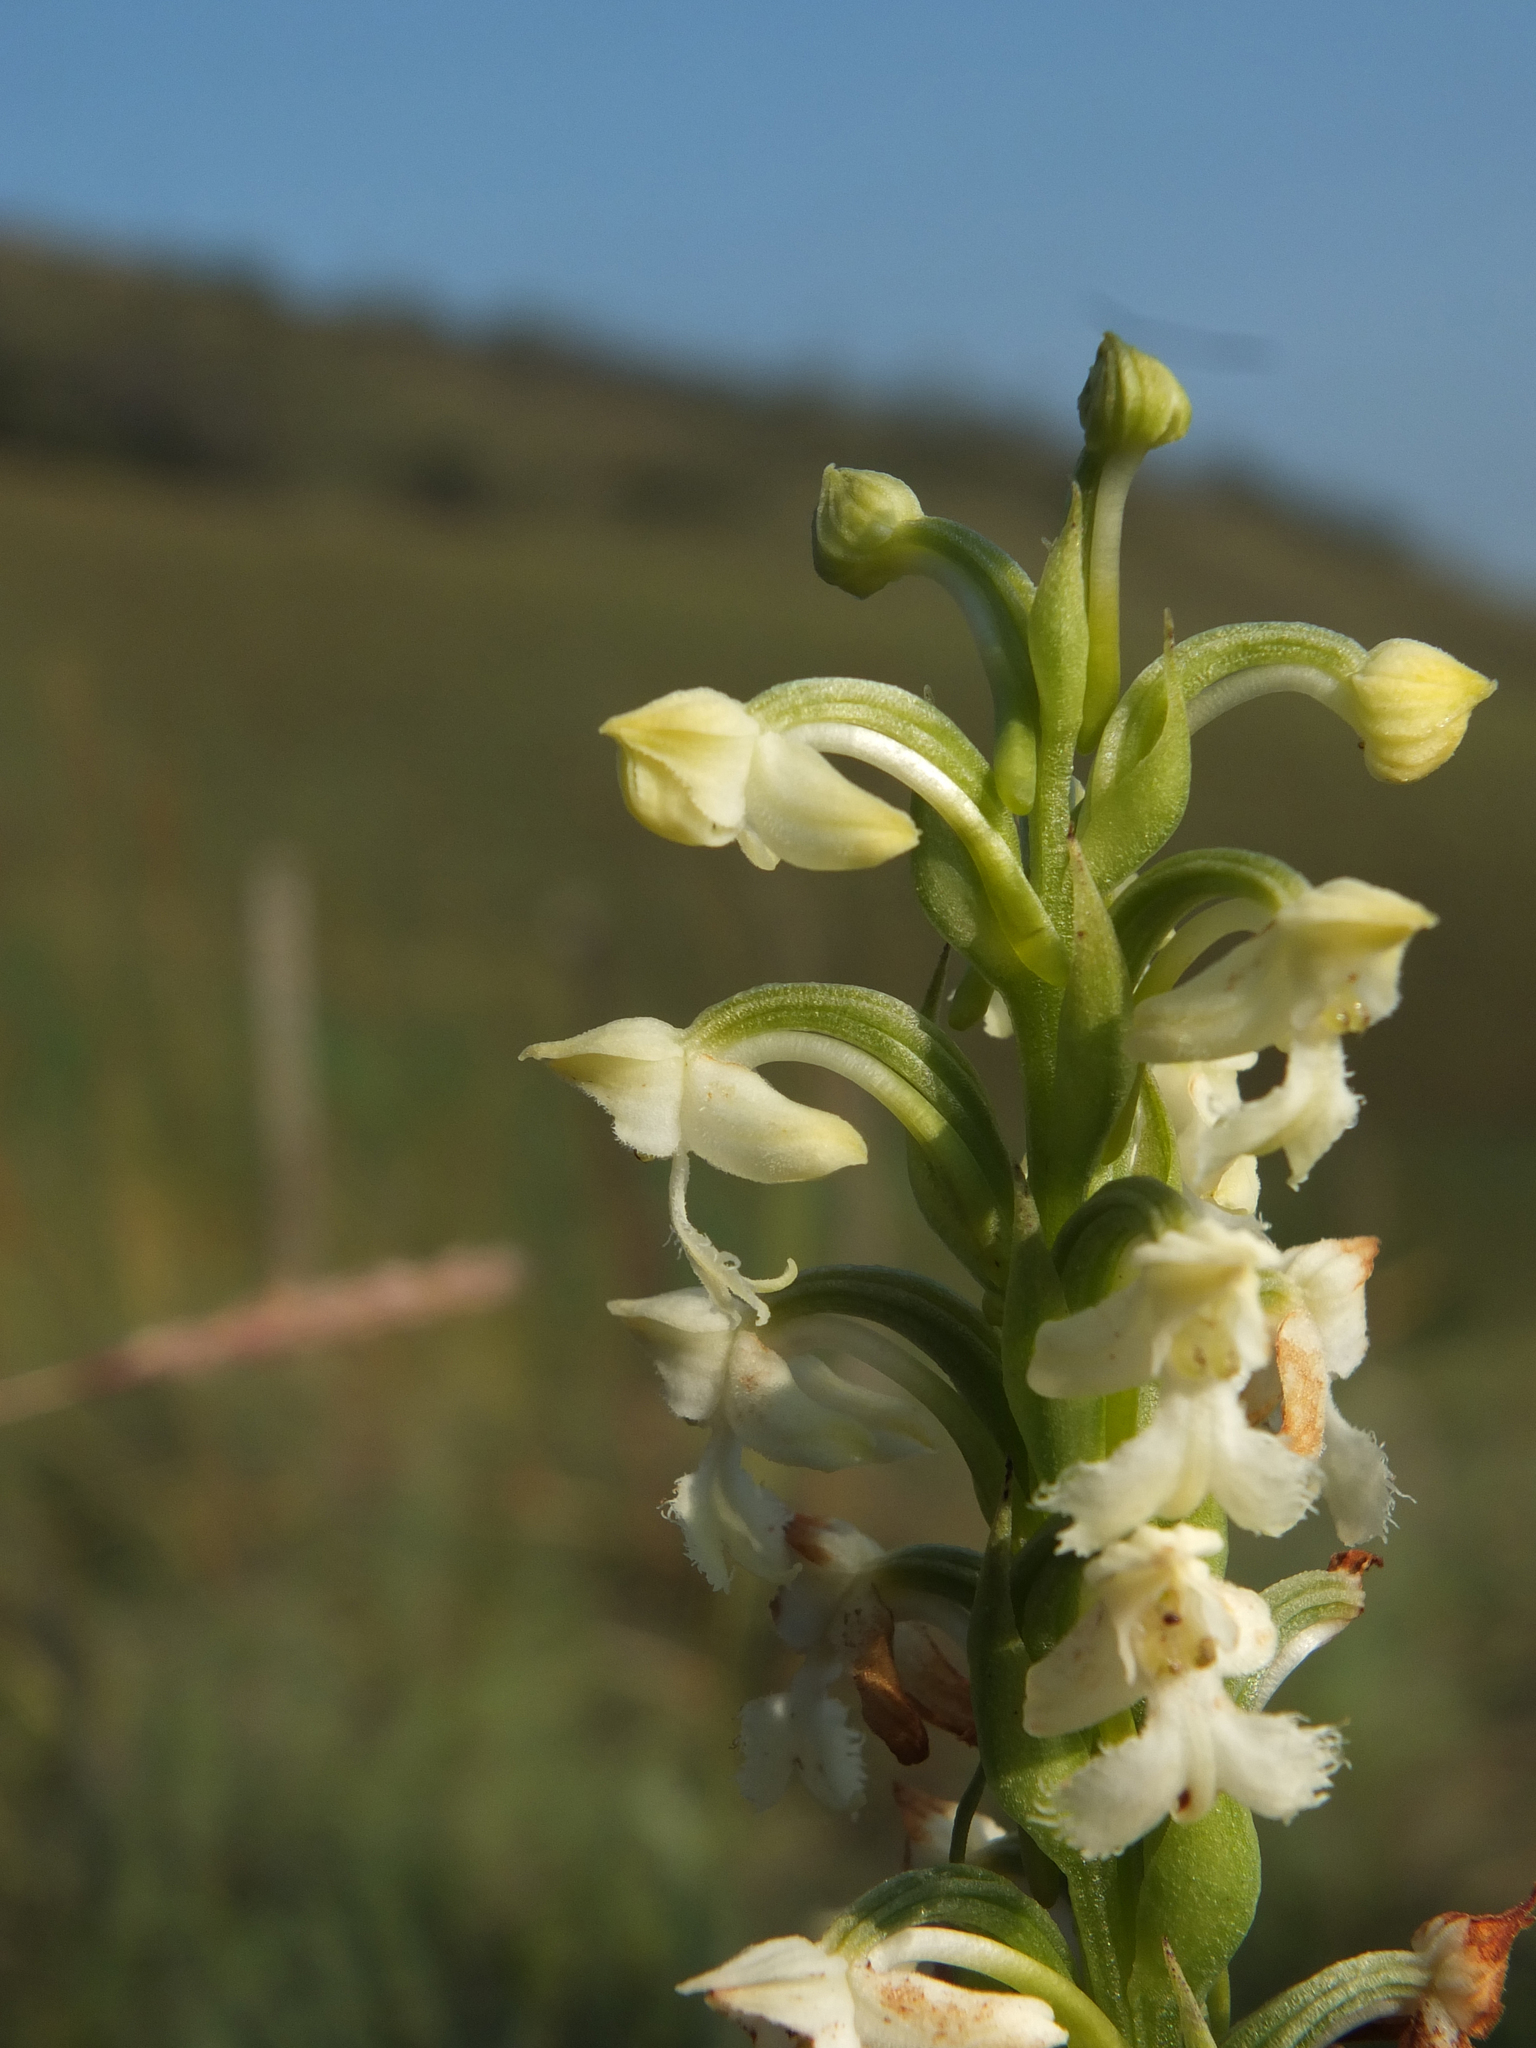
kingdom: Plantae
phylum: Tracheophyta
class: Liliopsida
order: Asparagales
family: Orchidaceae
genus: Habenaria
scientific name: Habenaria cephalotes
